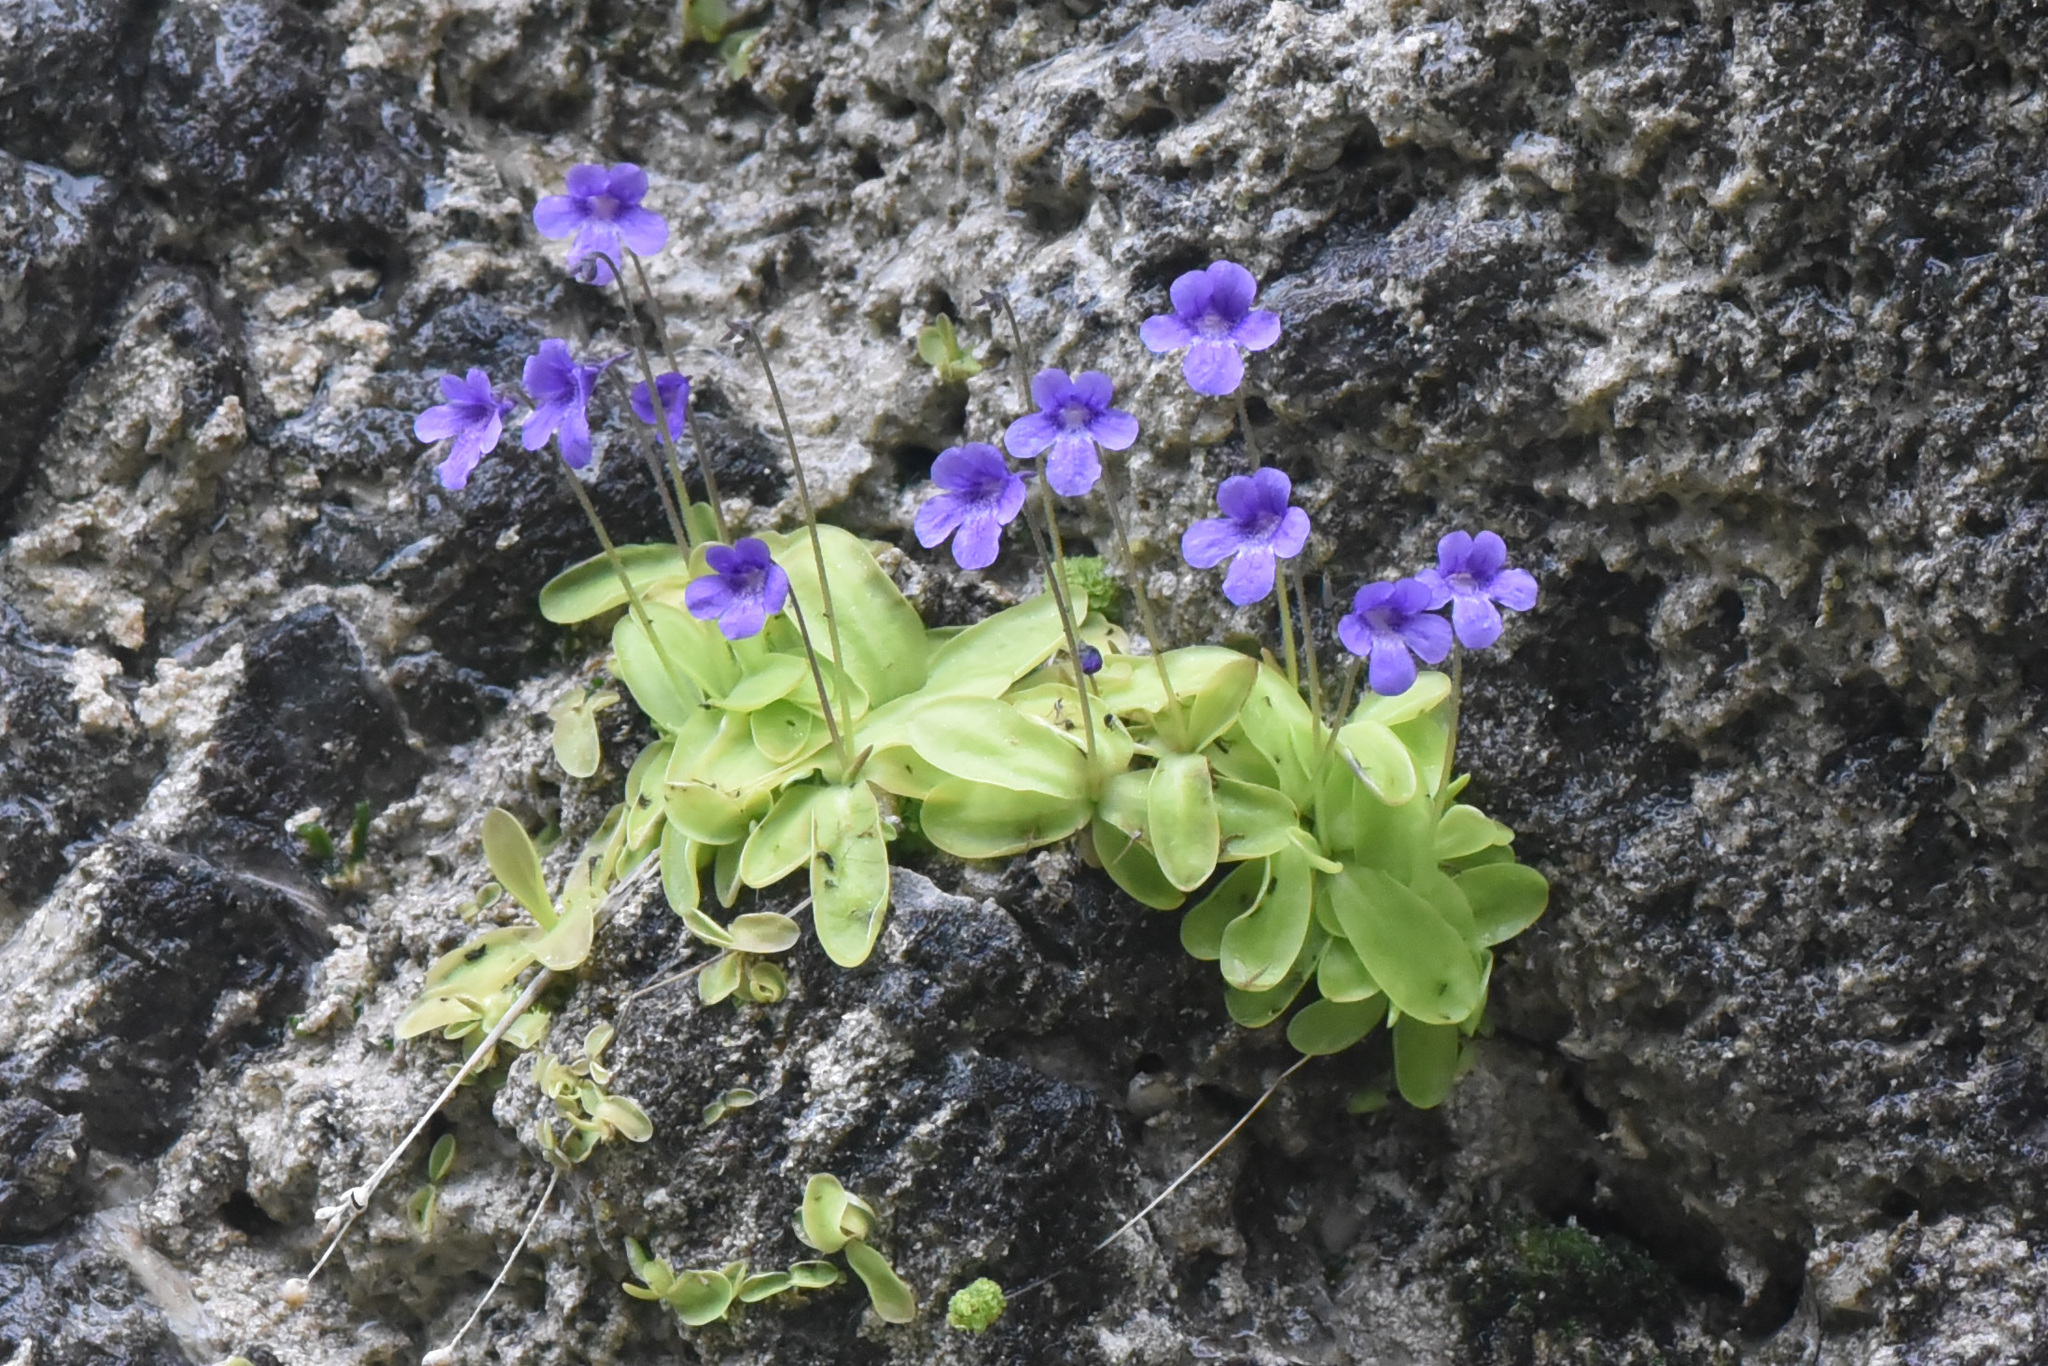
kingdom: Plantae
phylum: Tracheophyta
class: Magnoliopsida
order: Lamiales
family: Lentibulariaceae
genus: Pinguicula
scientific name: Pinguicula vulgaris
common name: Common butterwort
